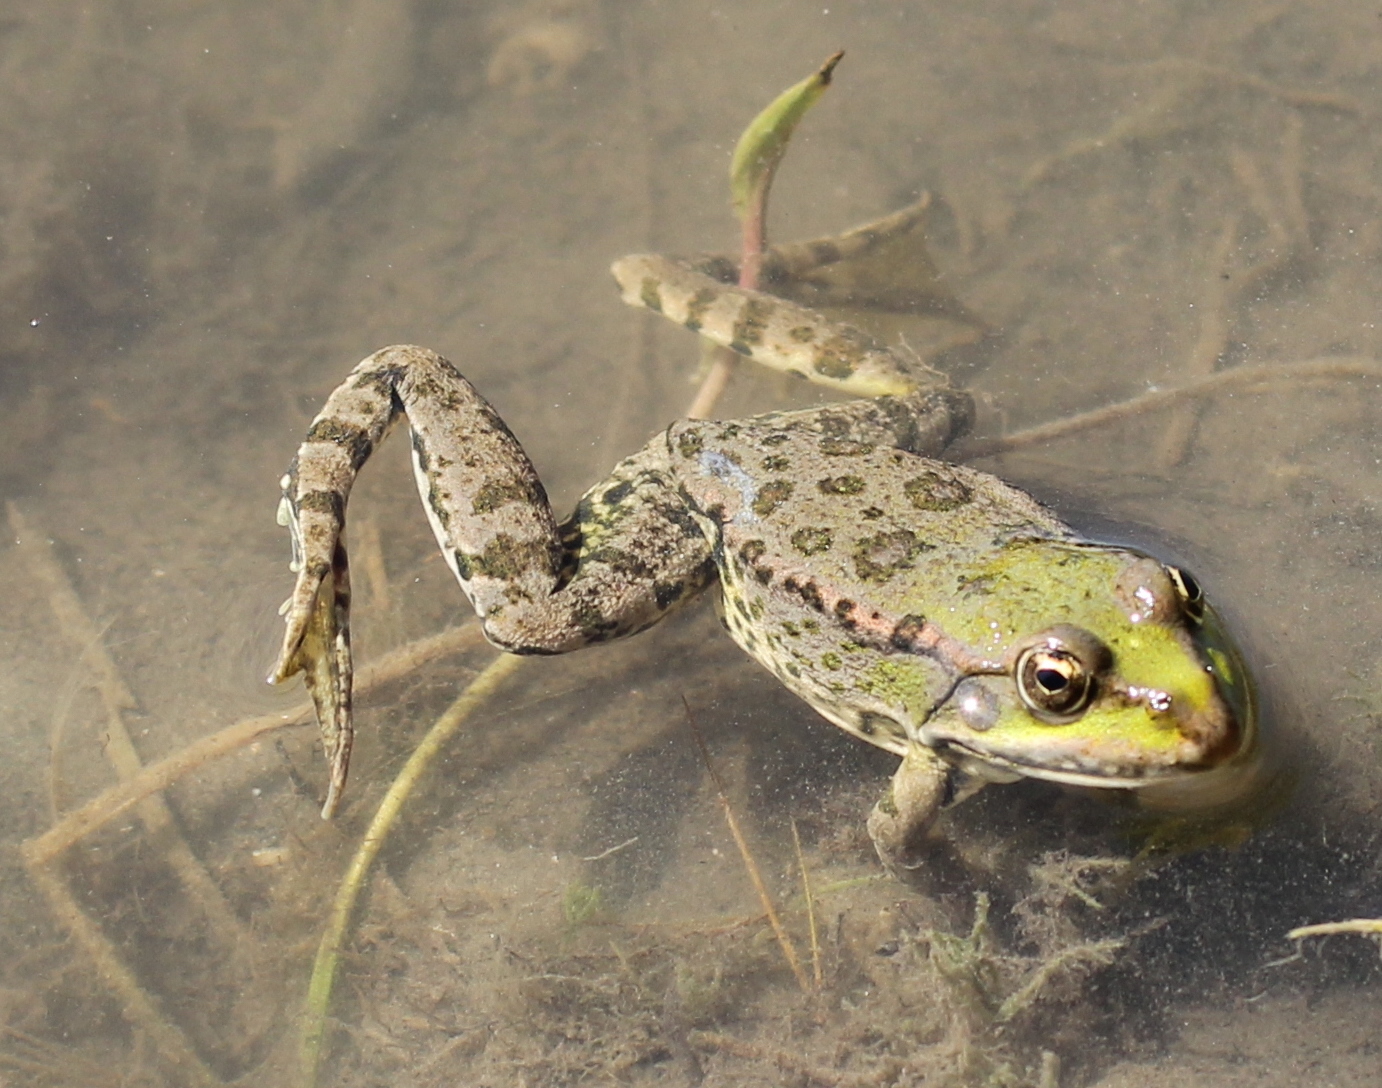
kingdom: Animalia
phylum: Chordata
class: Amphibia
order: Anura
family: Ranidae
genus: Pelophylax
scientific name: Pelophylax ridibundus
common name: Marsh frog
